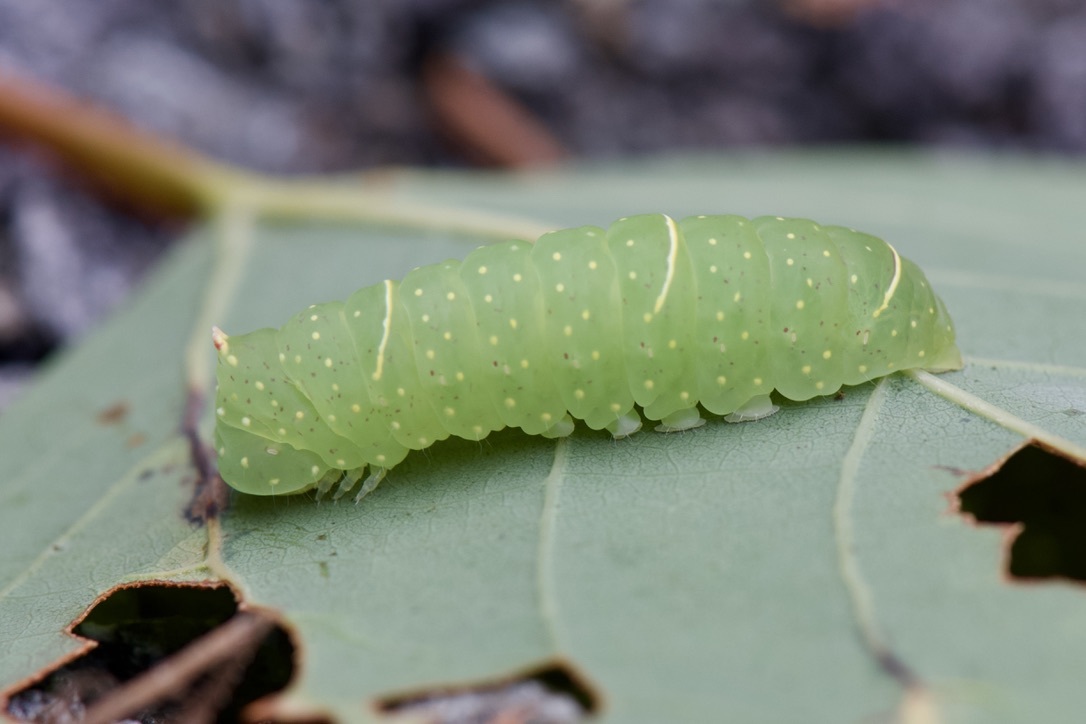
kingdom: Animalia
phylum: Arthropoda
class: Insecta
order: Lepidoptera
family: Noctuidae
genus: Raphia
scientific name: Raphia frater
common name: Brother
